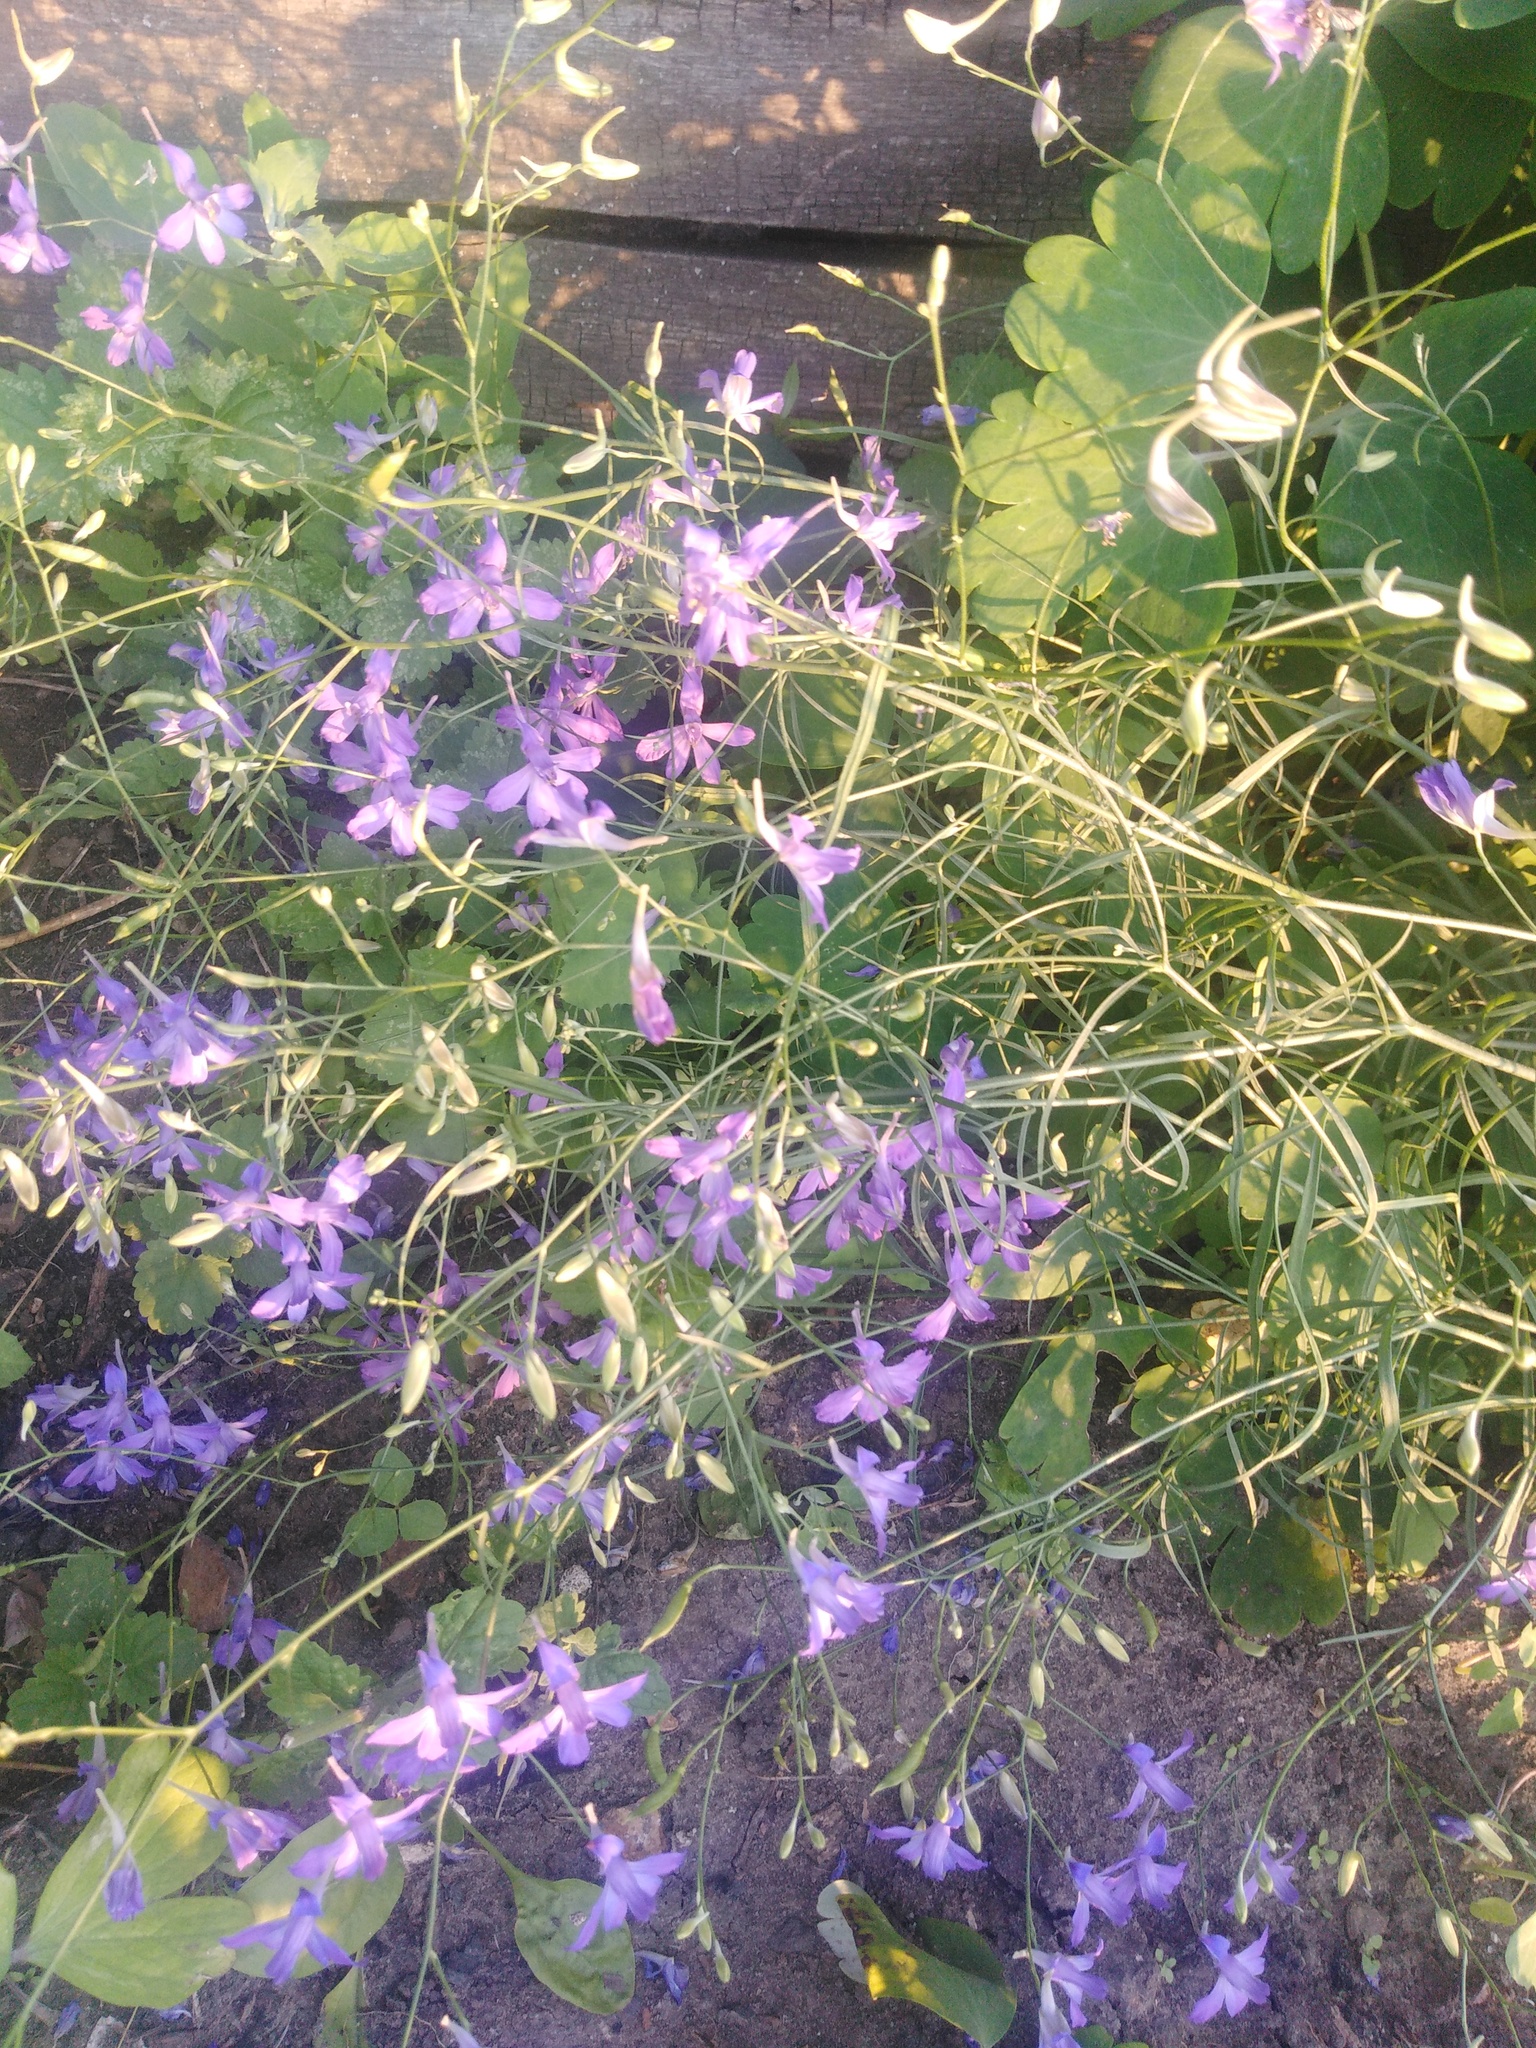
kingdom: Plantae
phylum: Tracheophyta
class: Magnoliopsida
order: Ranunculales
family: Ranunculaceae
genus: Delphinium
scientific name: Delphinium consolida
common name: Branching larkspur
